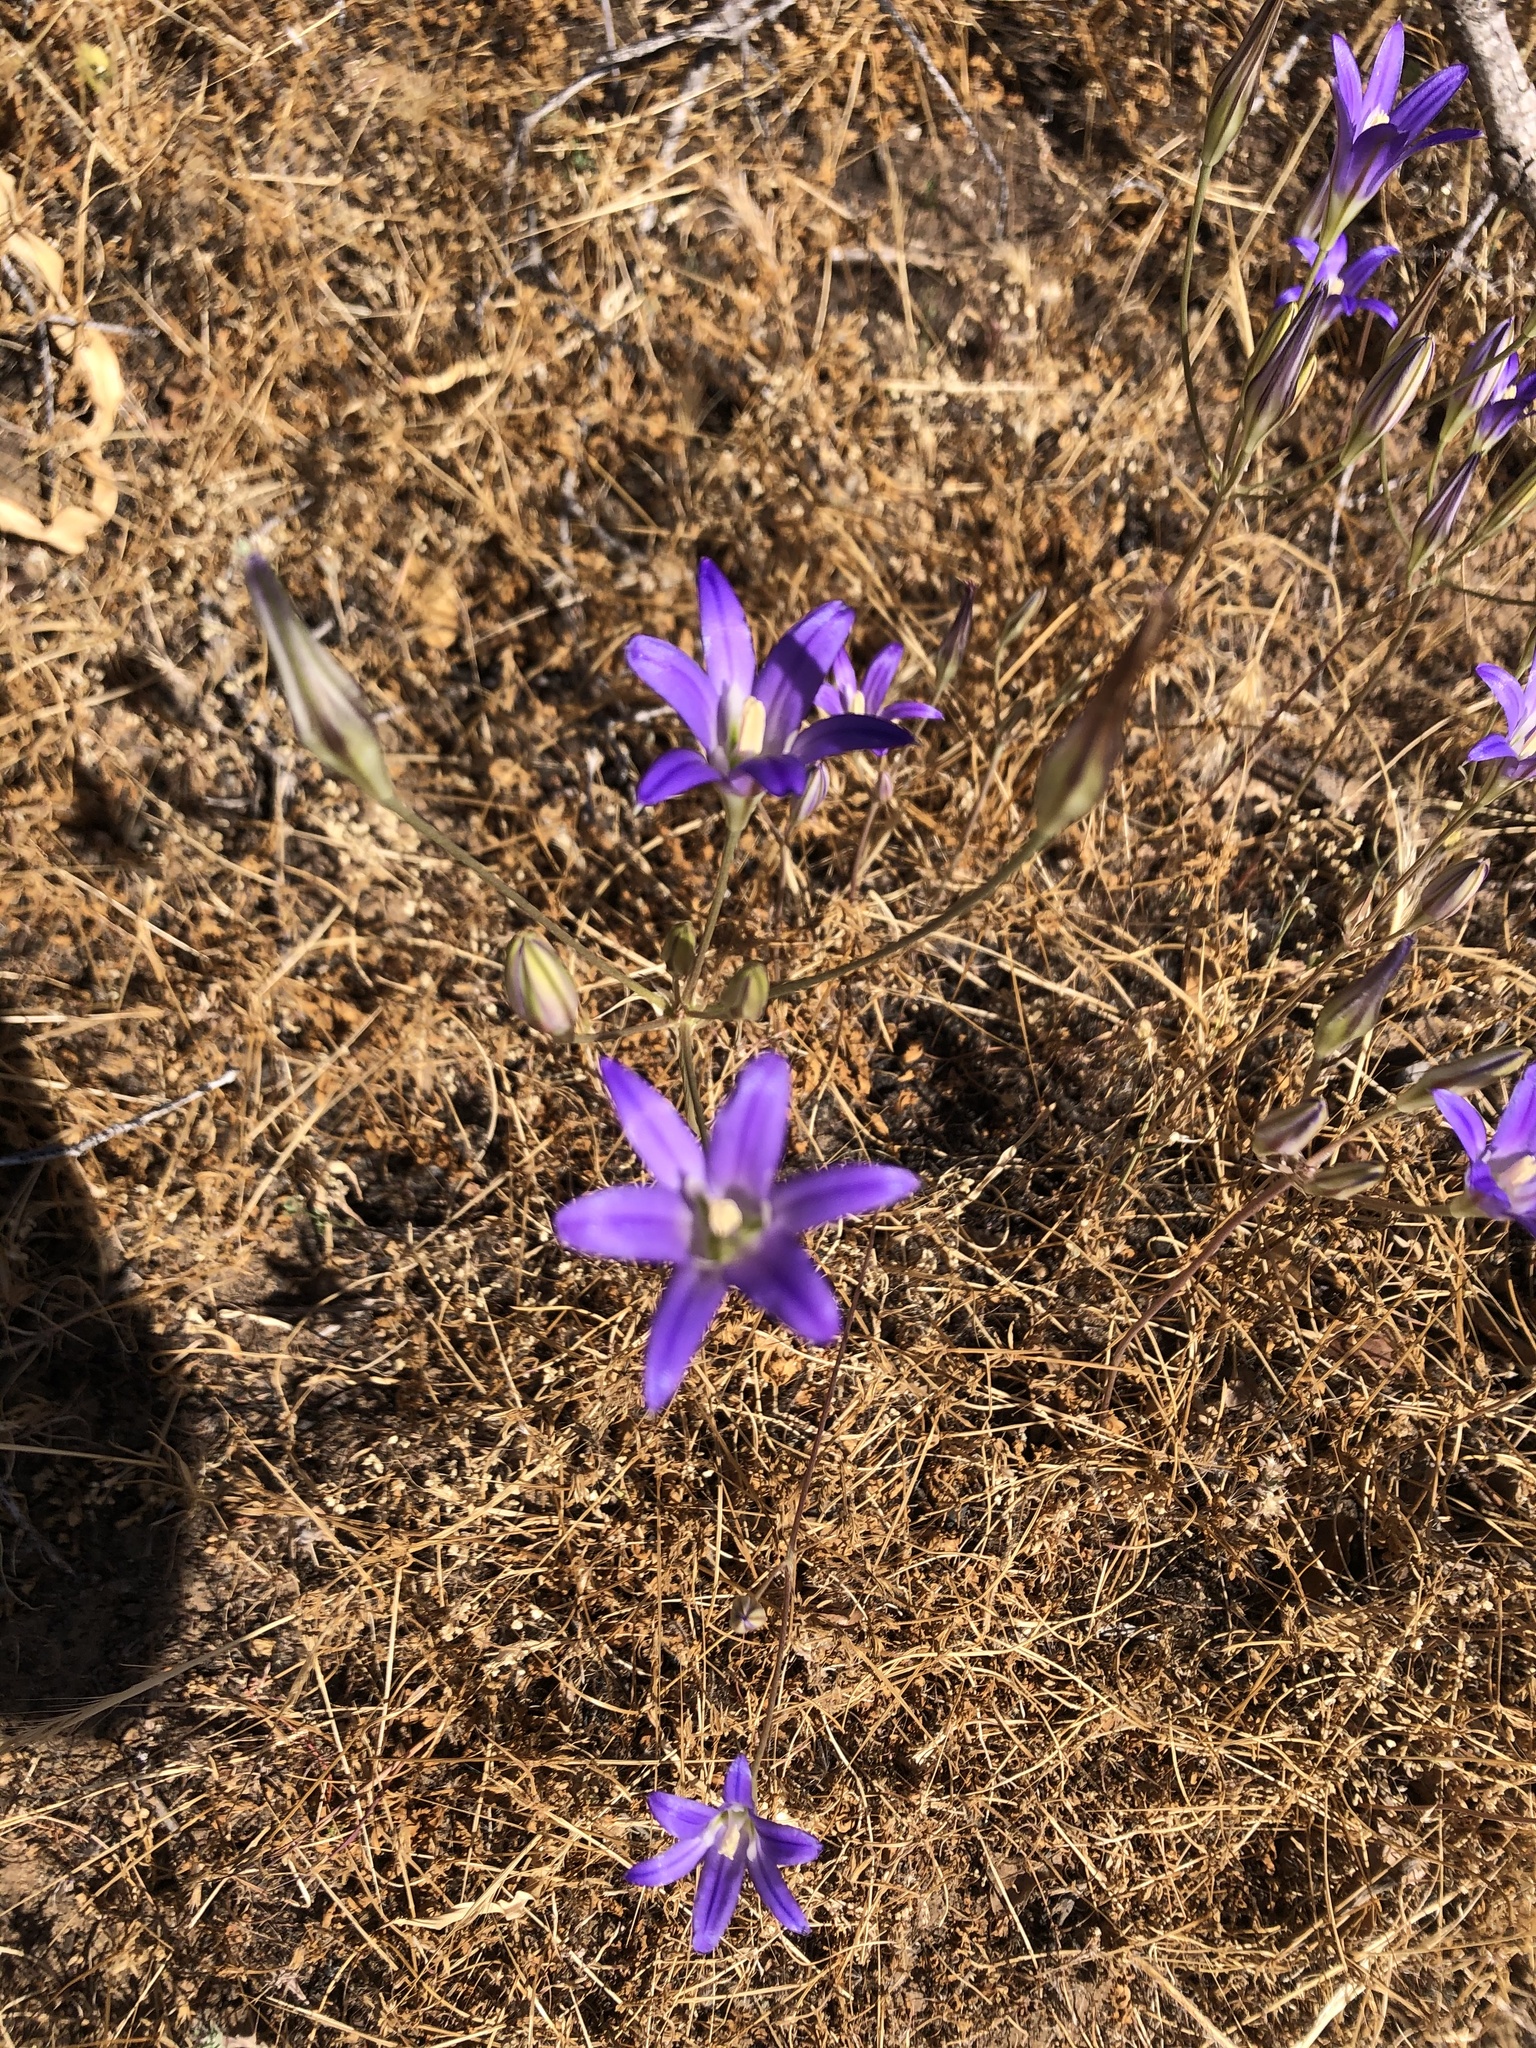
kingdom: Plantae
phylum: Tracheophyta
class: Liliopsida
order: Asparagales
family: Asparagaceae
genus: Brodiaea
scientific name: Brodiaea elegans
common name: Elegant cluster-lily
